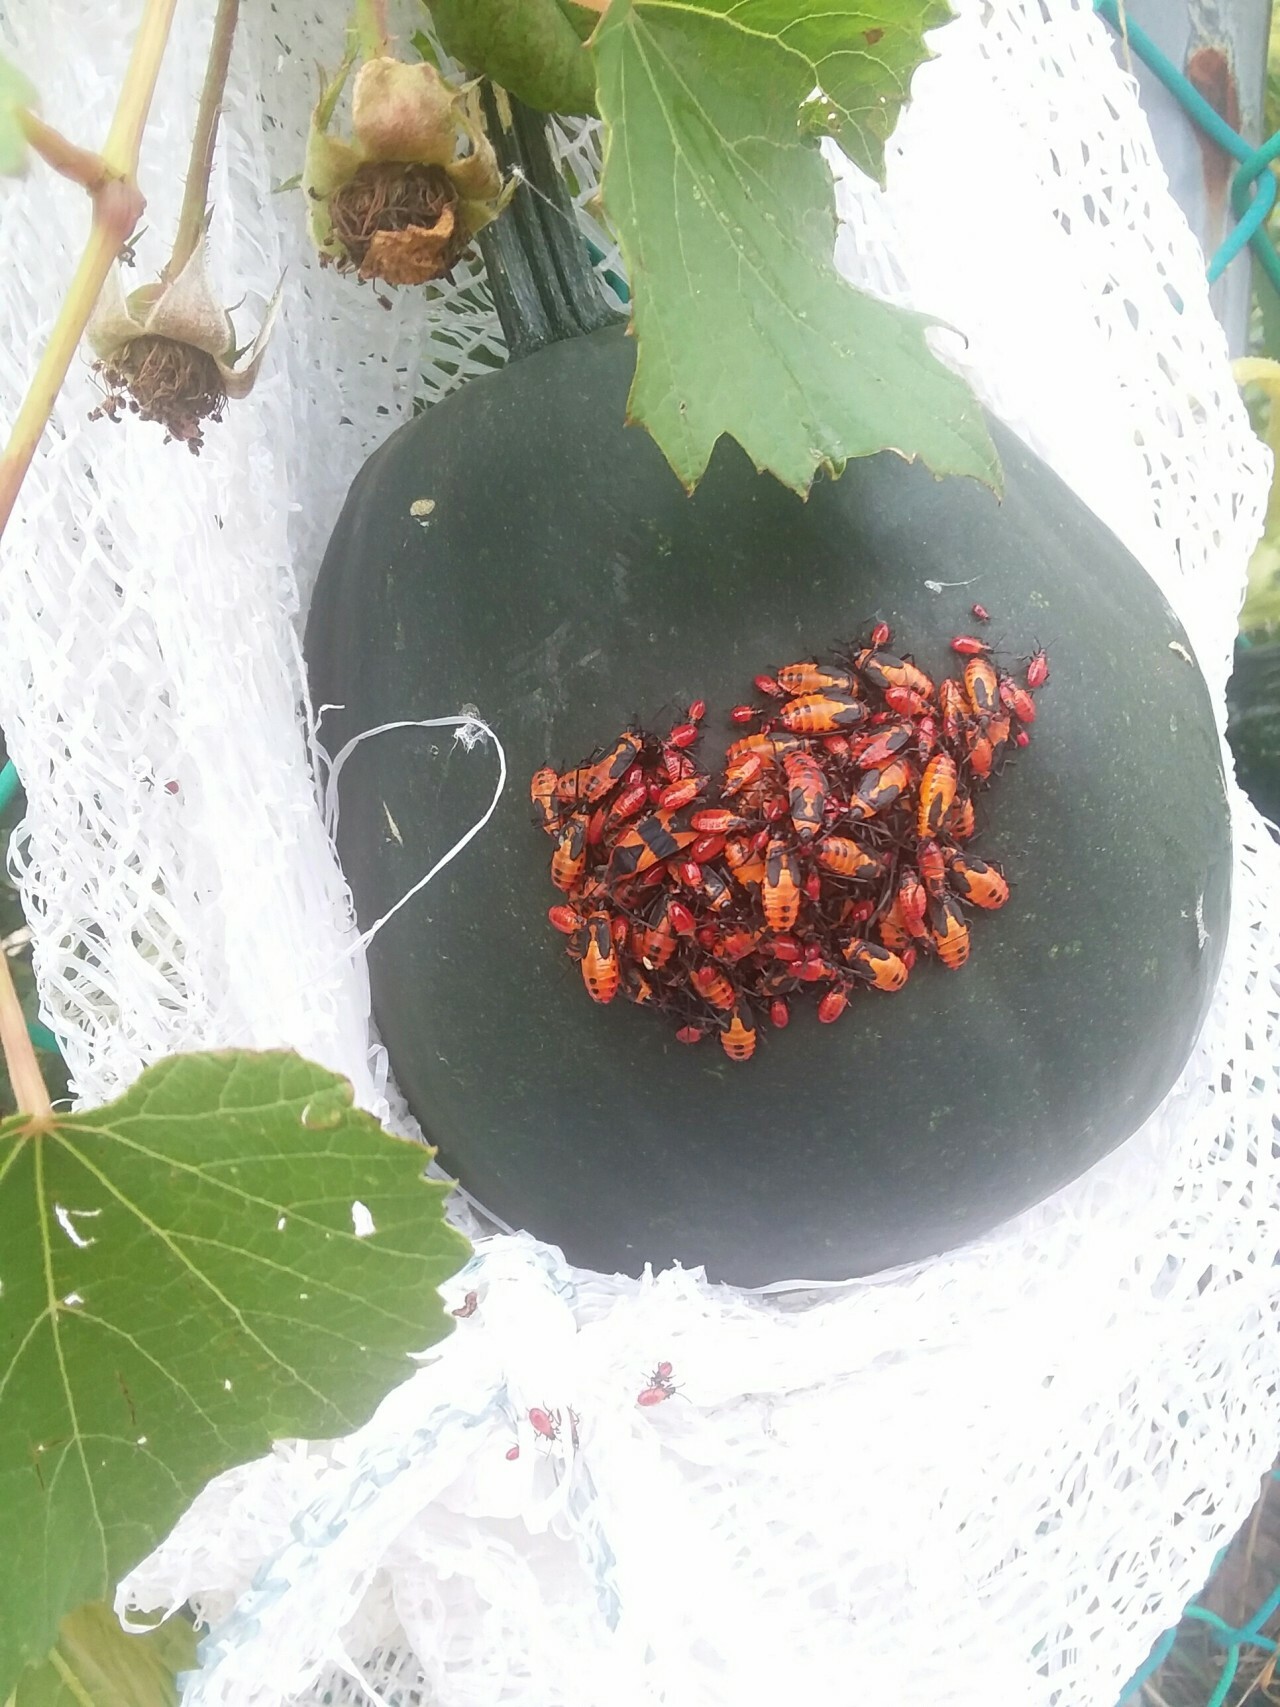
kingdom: Animalia
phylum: Arthropoda
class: Insecta
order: Hemiptera
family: Lygaeidae
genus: Oncopeltus
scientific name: Oncopeltus fasciatus
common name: Large milkweed bug
